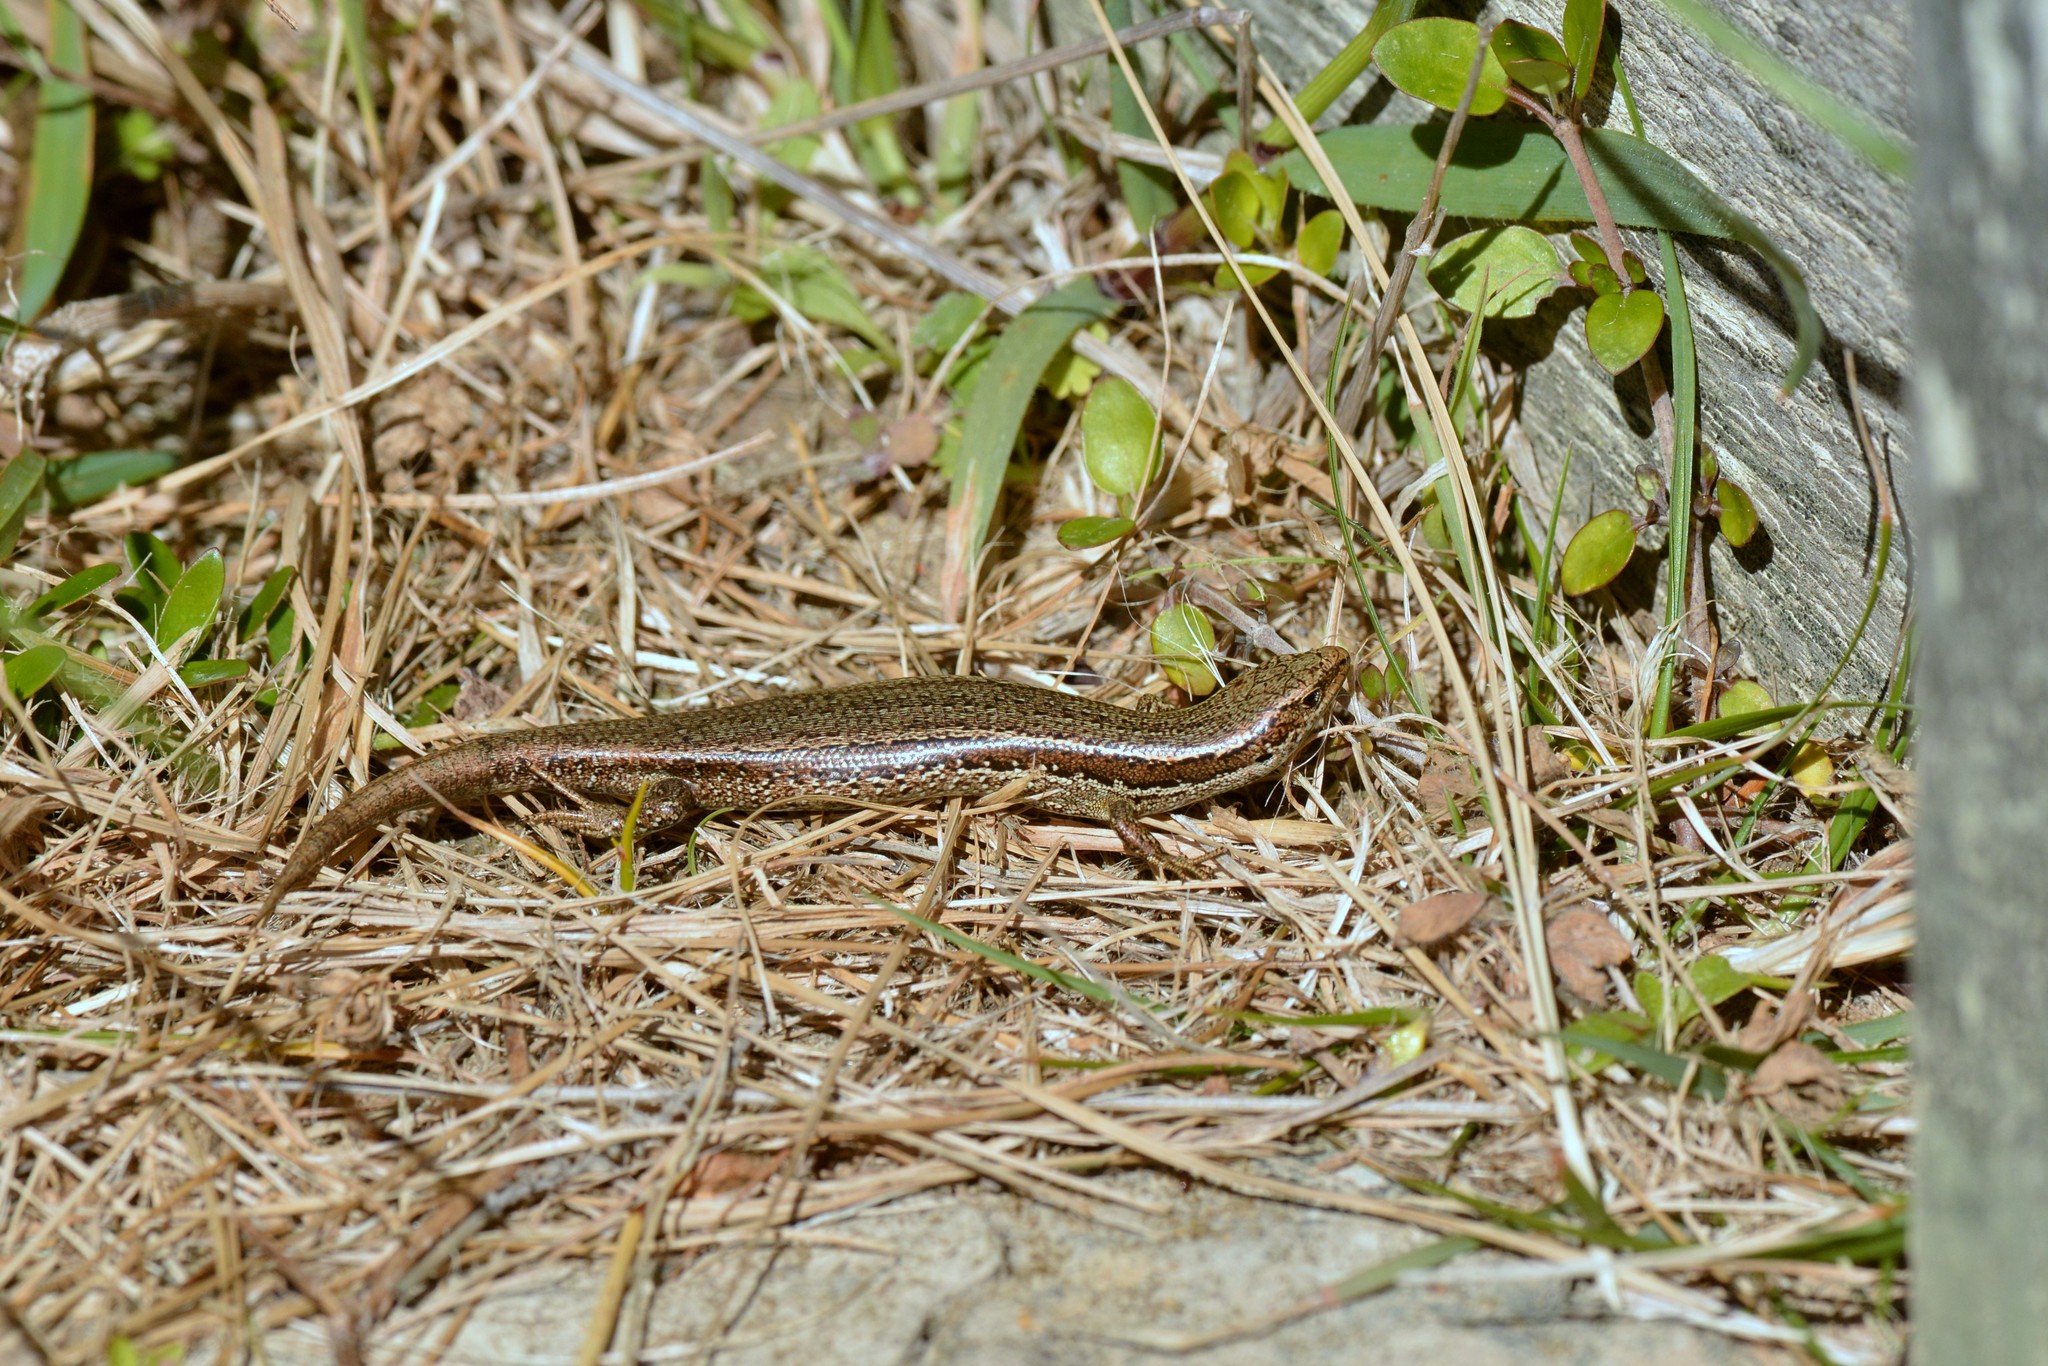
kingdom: Animalia
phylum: Chordata
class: Squamata
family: Scincidae
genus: Oligosoma
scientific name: Oligosoma polychroma
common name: Common new zealand skink
